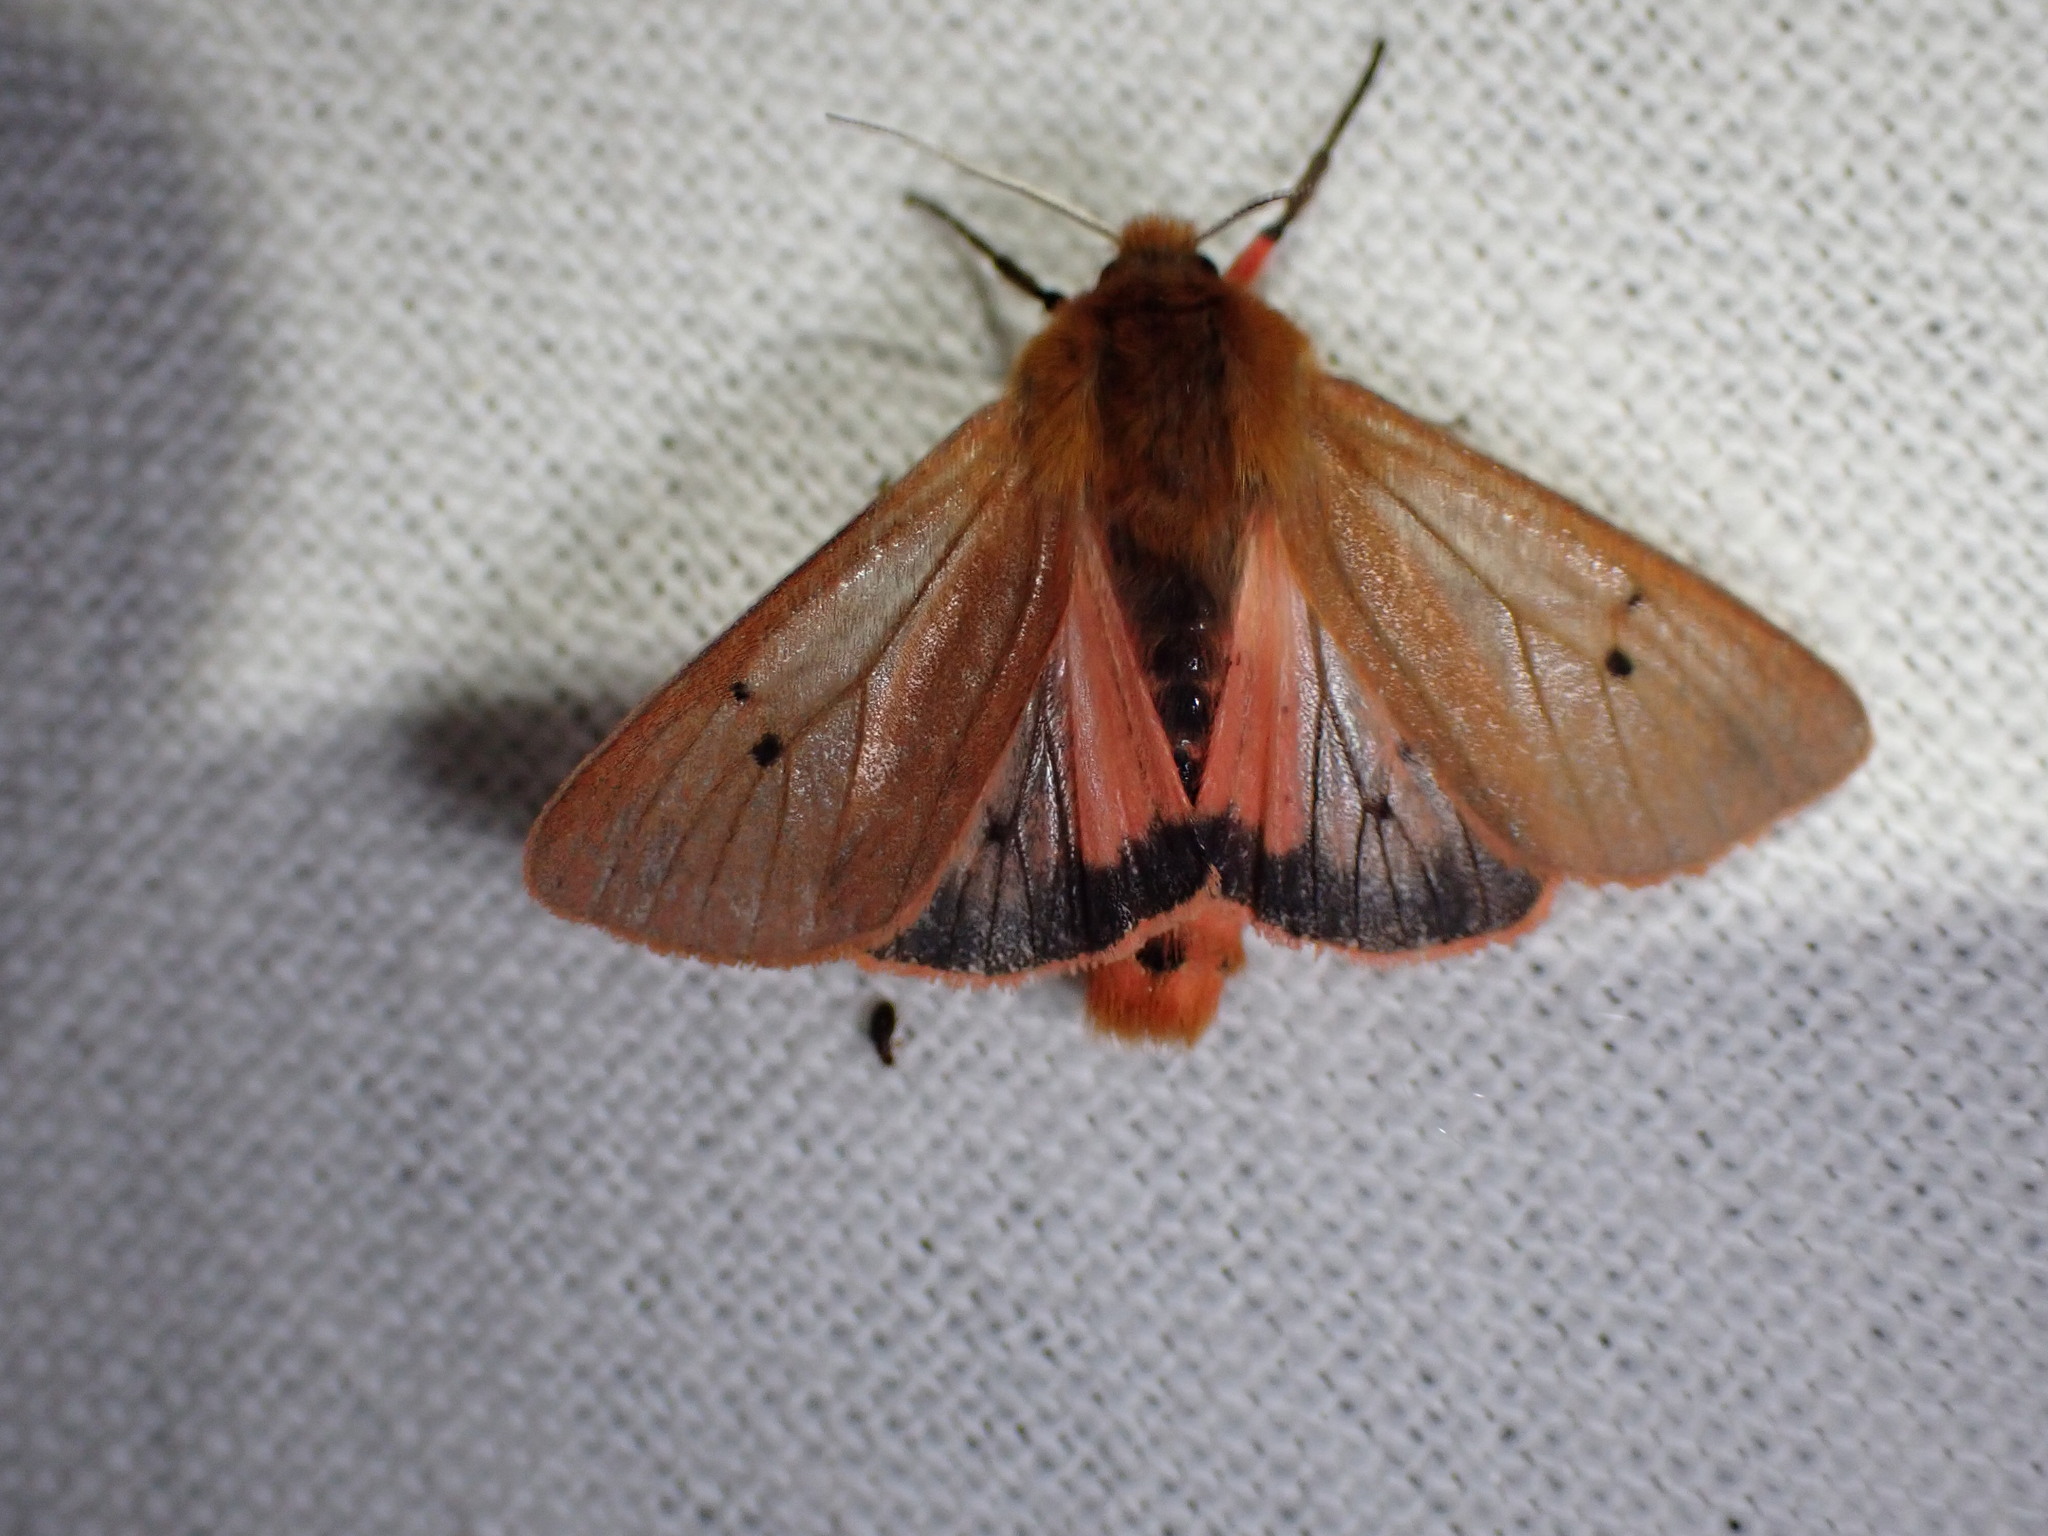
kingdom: Animalia
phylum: Arthropoda
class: Insecta
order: Lepidoptera
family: Erebidae
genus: Phragmatobia
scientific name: Phragmatobia fuliginosa
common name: Ruby tiger
